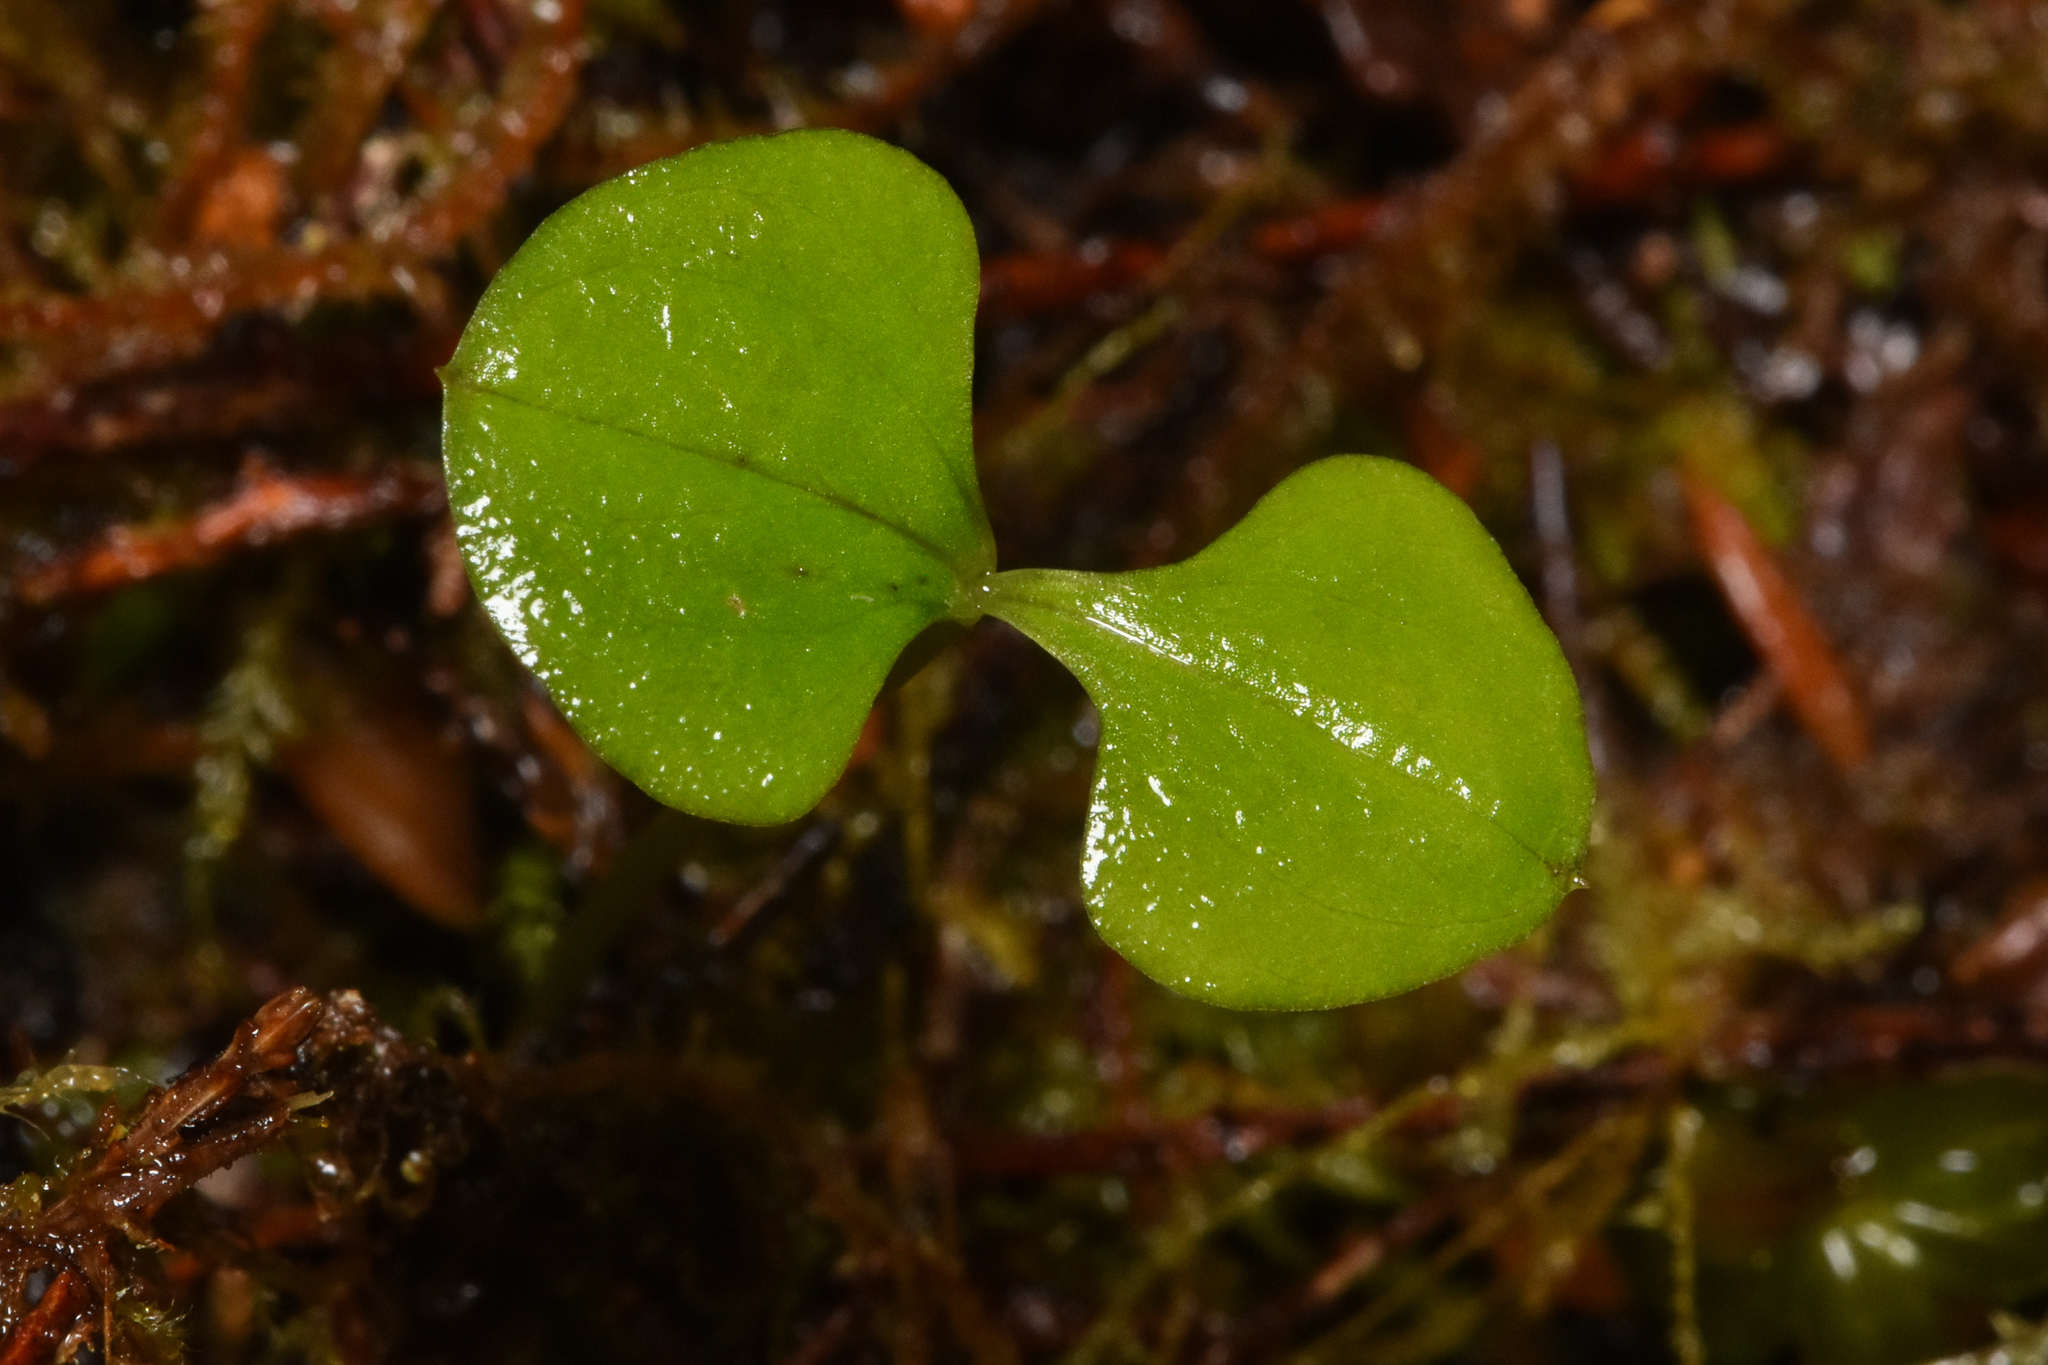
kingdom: Plantae
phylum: Tracheophyta
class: Liliopsida
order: Asparagales
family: Orchidaceae
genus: Neottia
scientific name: Neottia cordata
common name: Lesser twayblade
